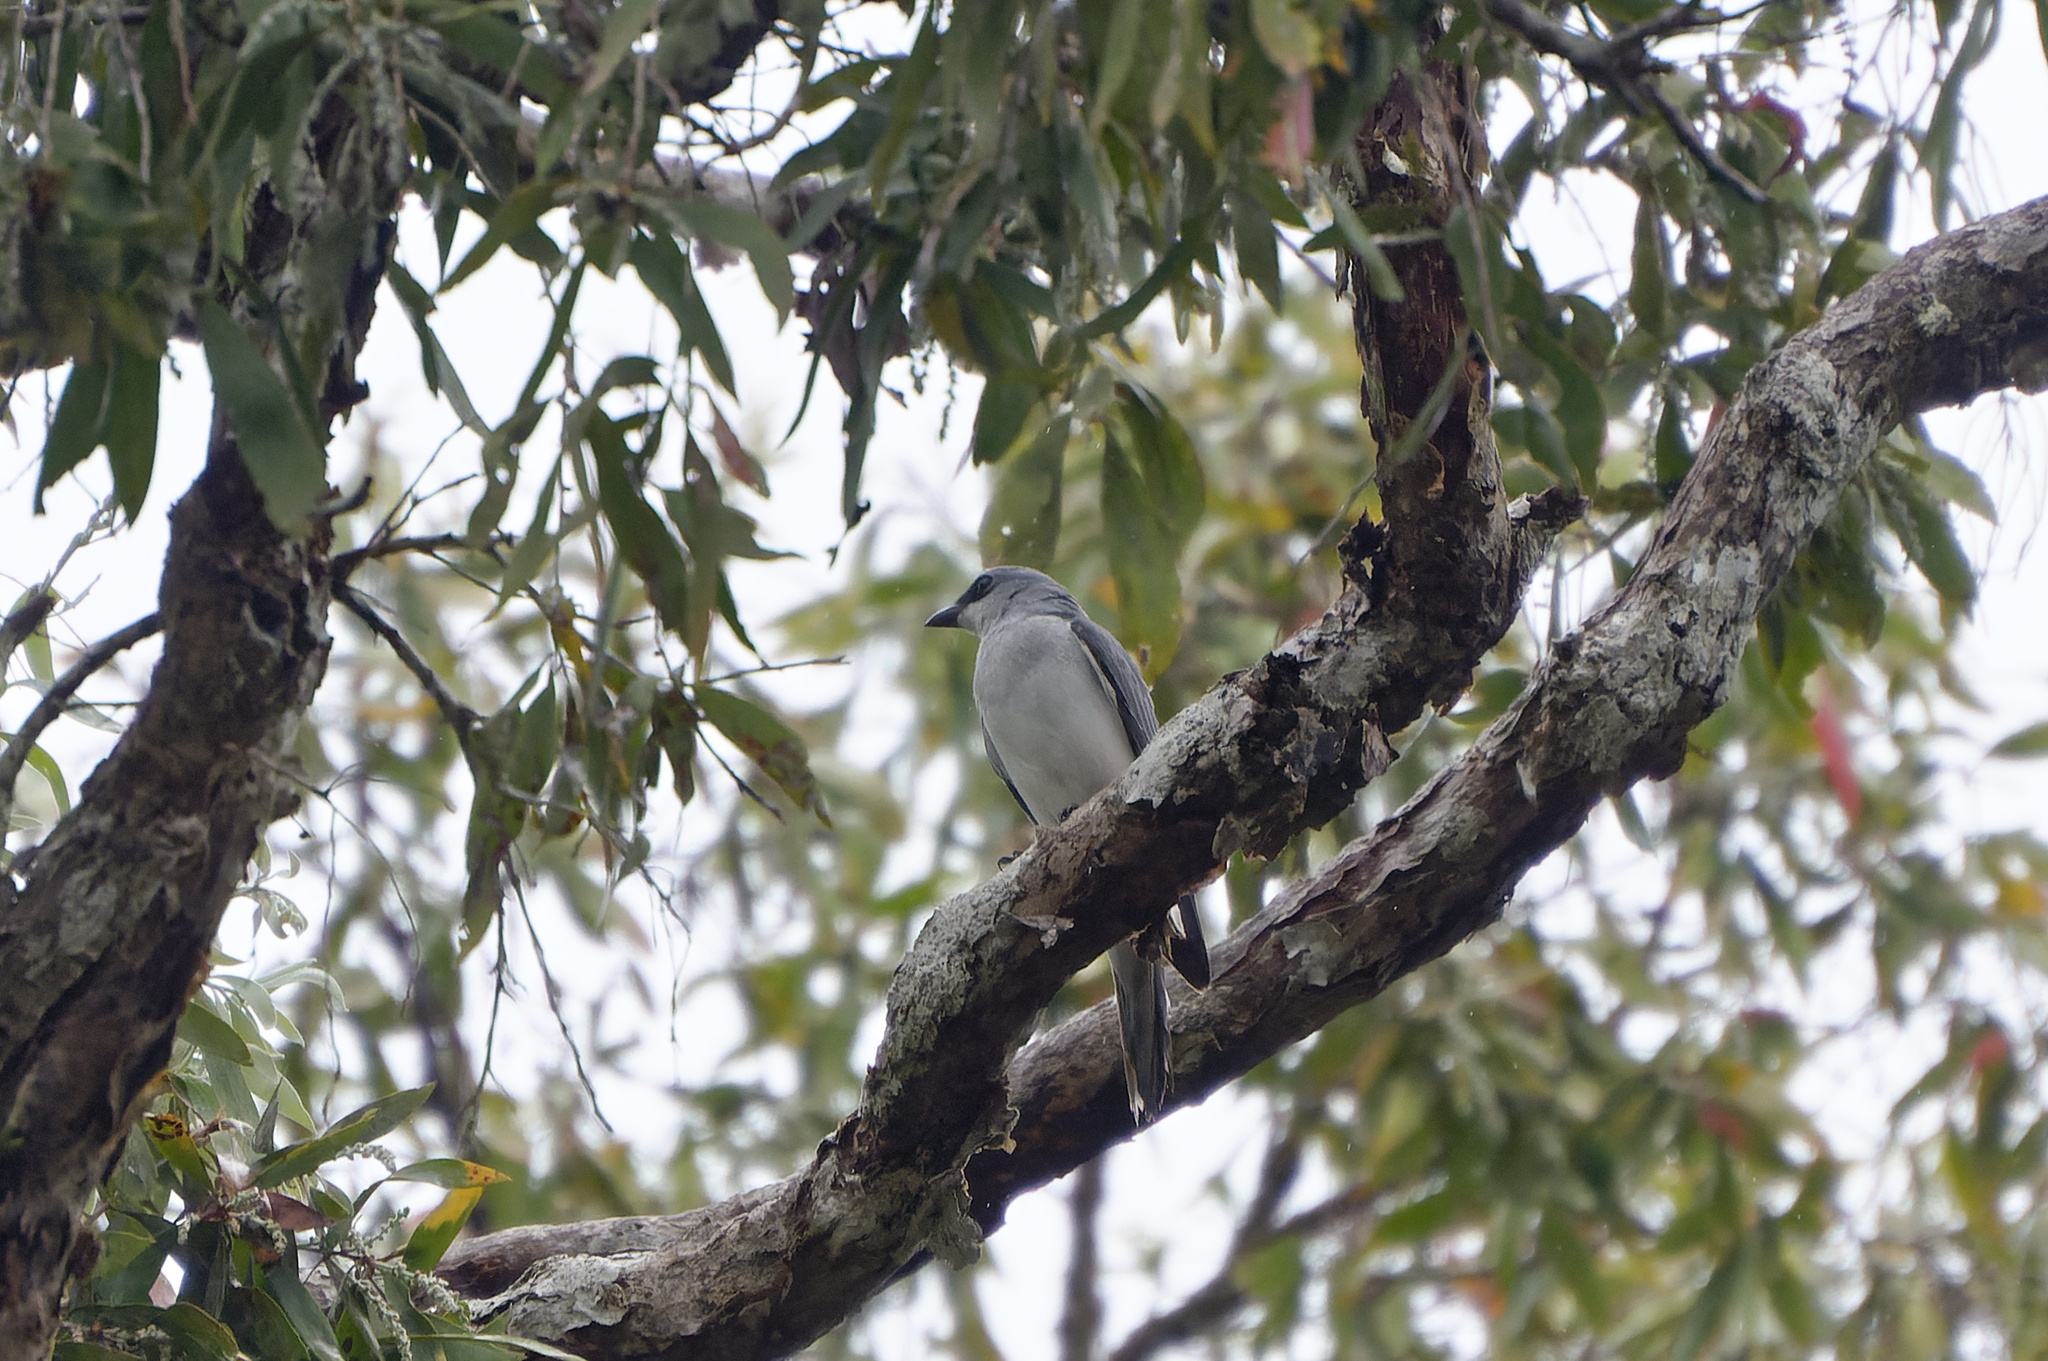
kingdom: Animalia
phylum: Chordata
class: Aves
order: Passeriformes
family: Campephagidae
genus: Coracina
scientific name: Coracina papuensis
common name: White-bellied cuckooshrike
